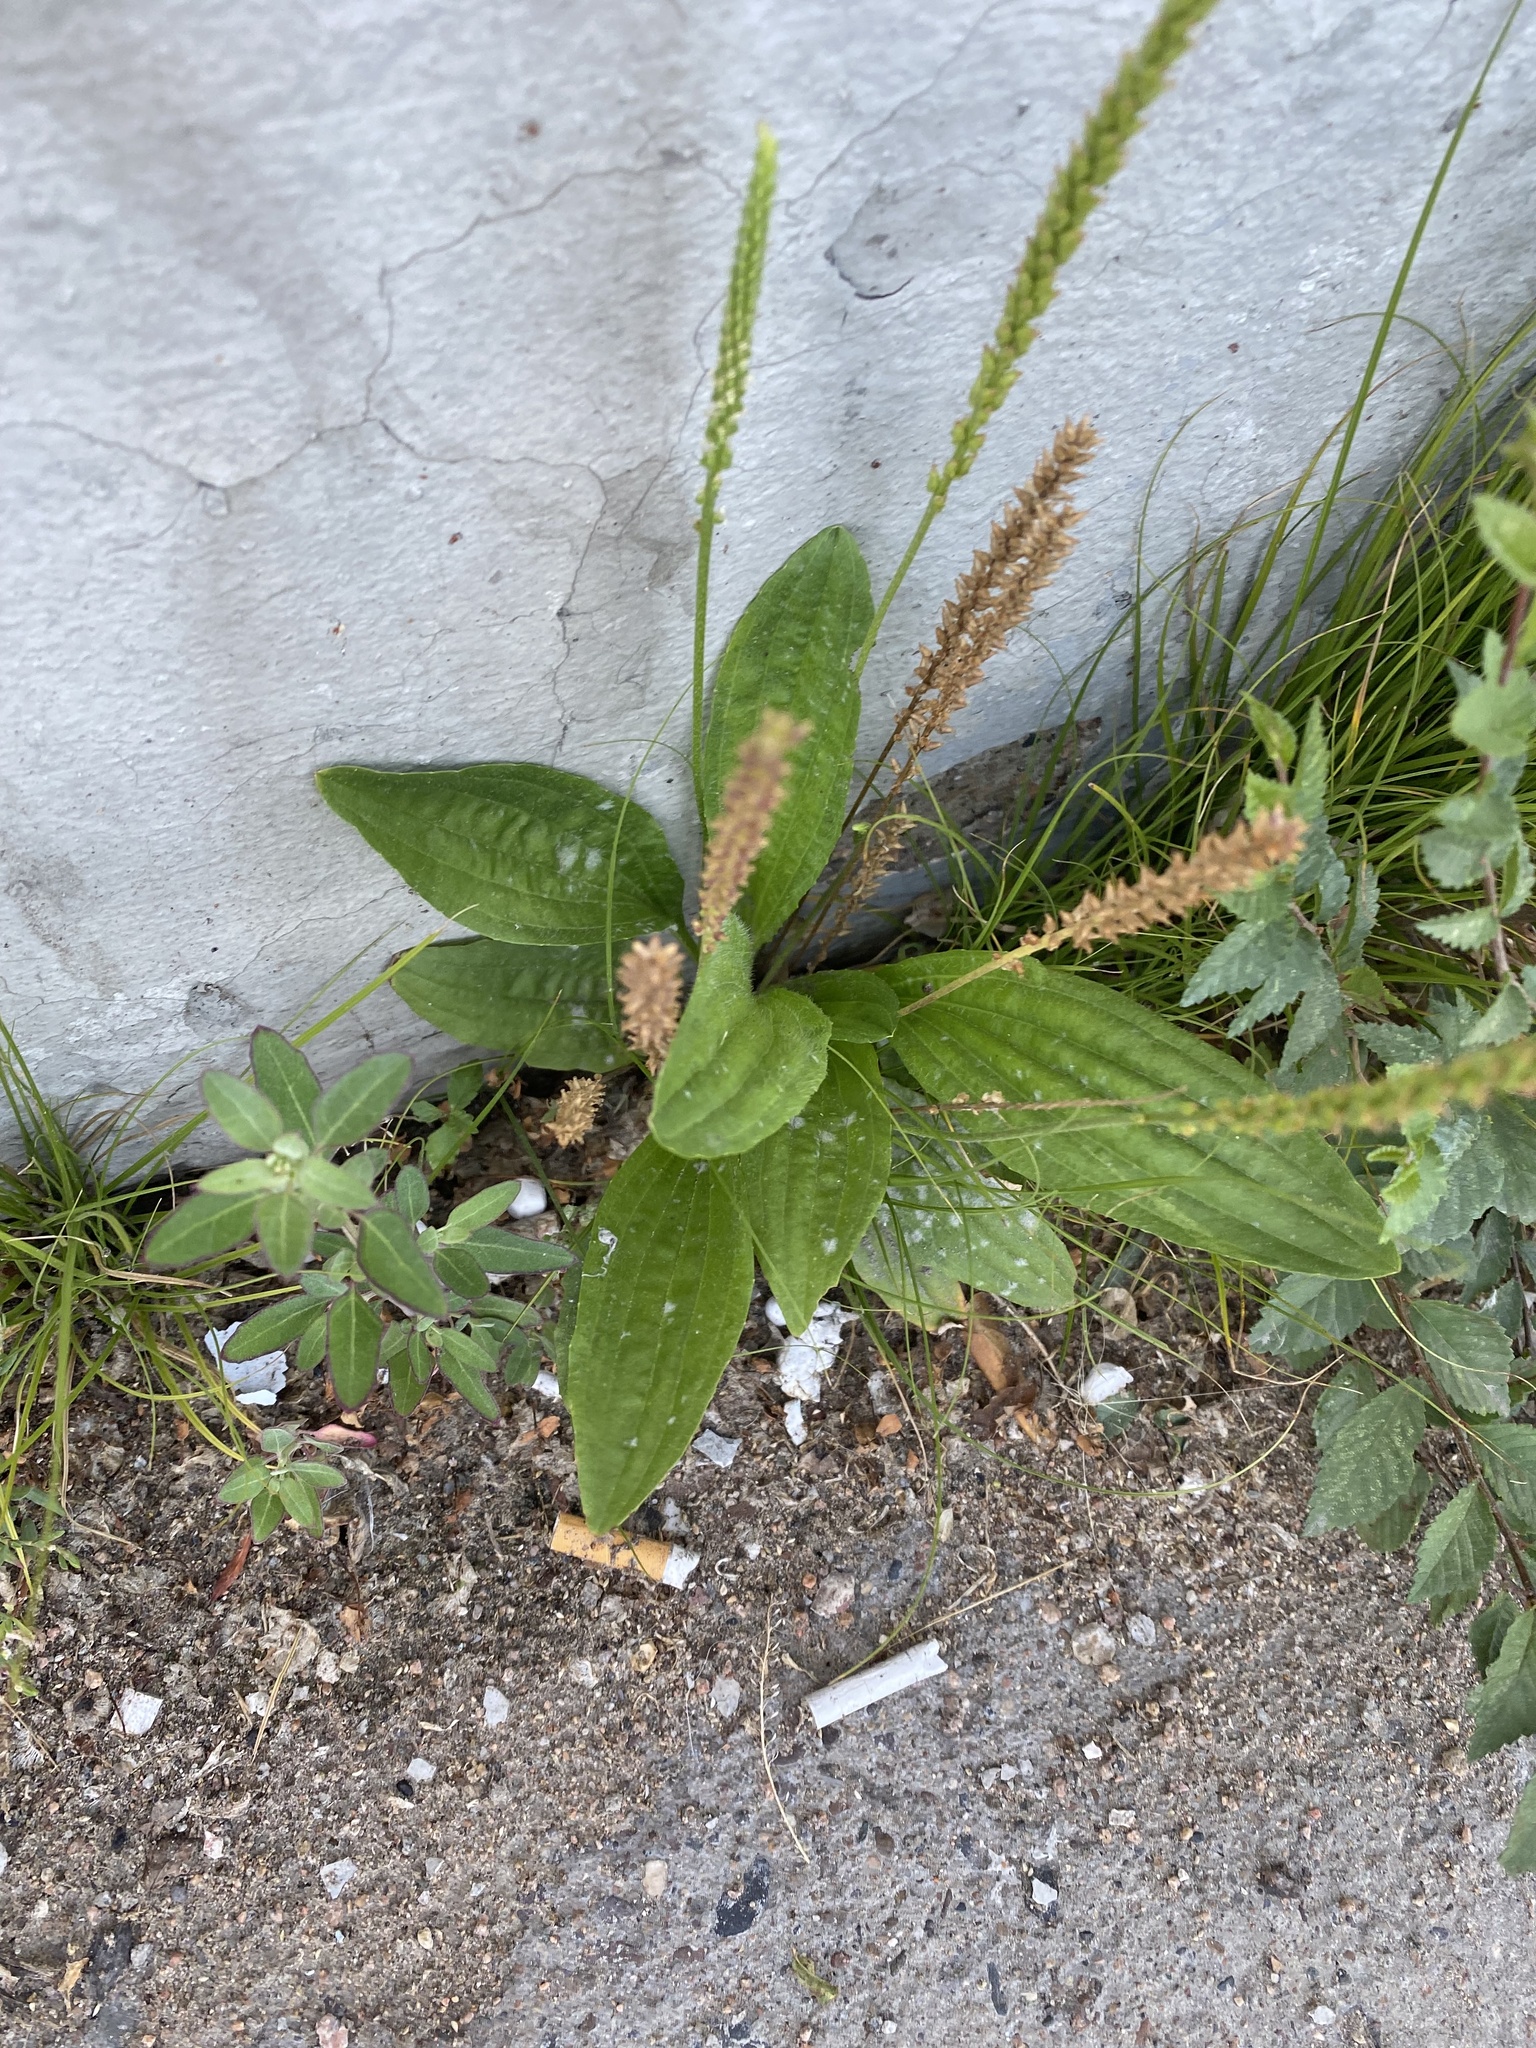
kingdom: Plantae
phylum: Tracheophyta
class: Magnoliopsida
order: Lamiales
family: Plantaginaceae
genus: Plantago
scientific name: Plantago depressa
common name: Depressed plantain
